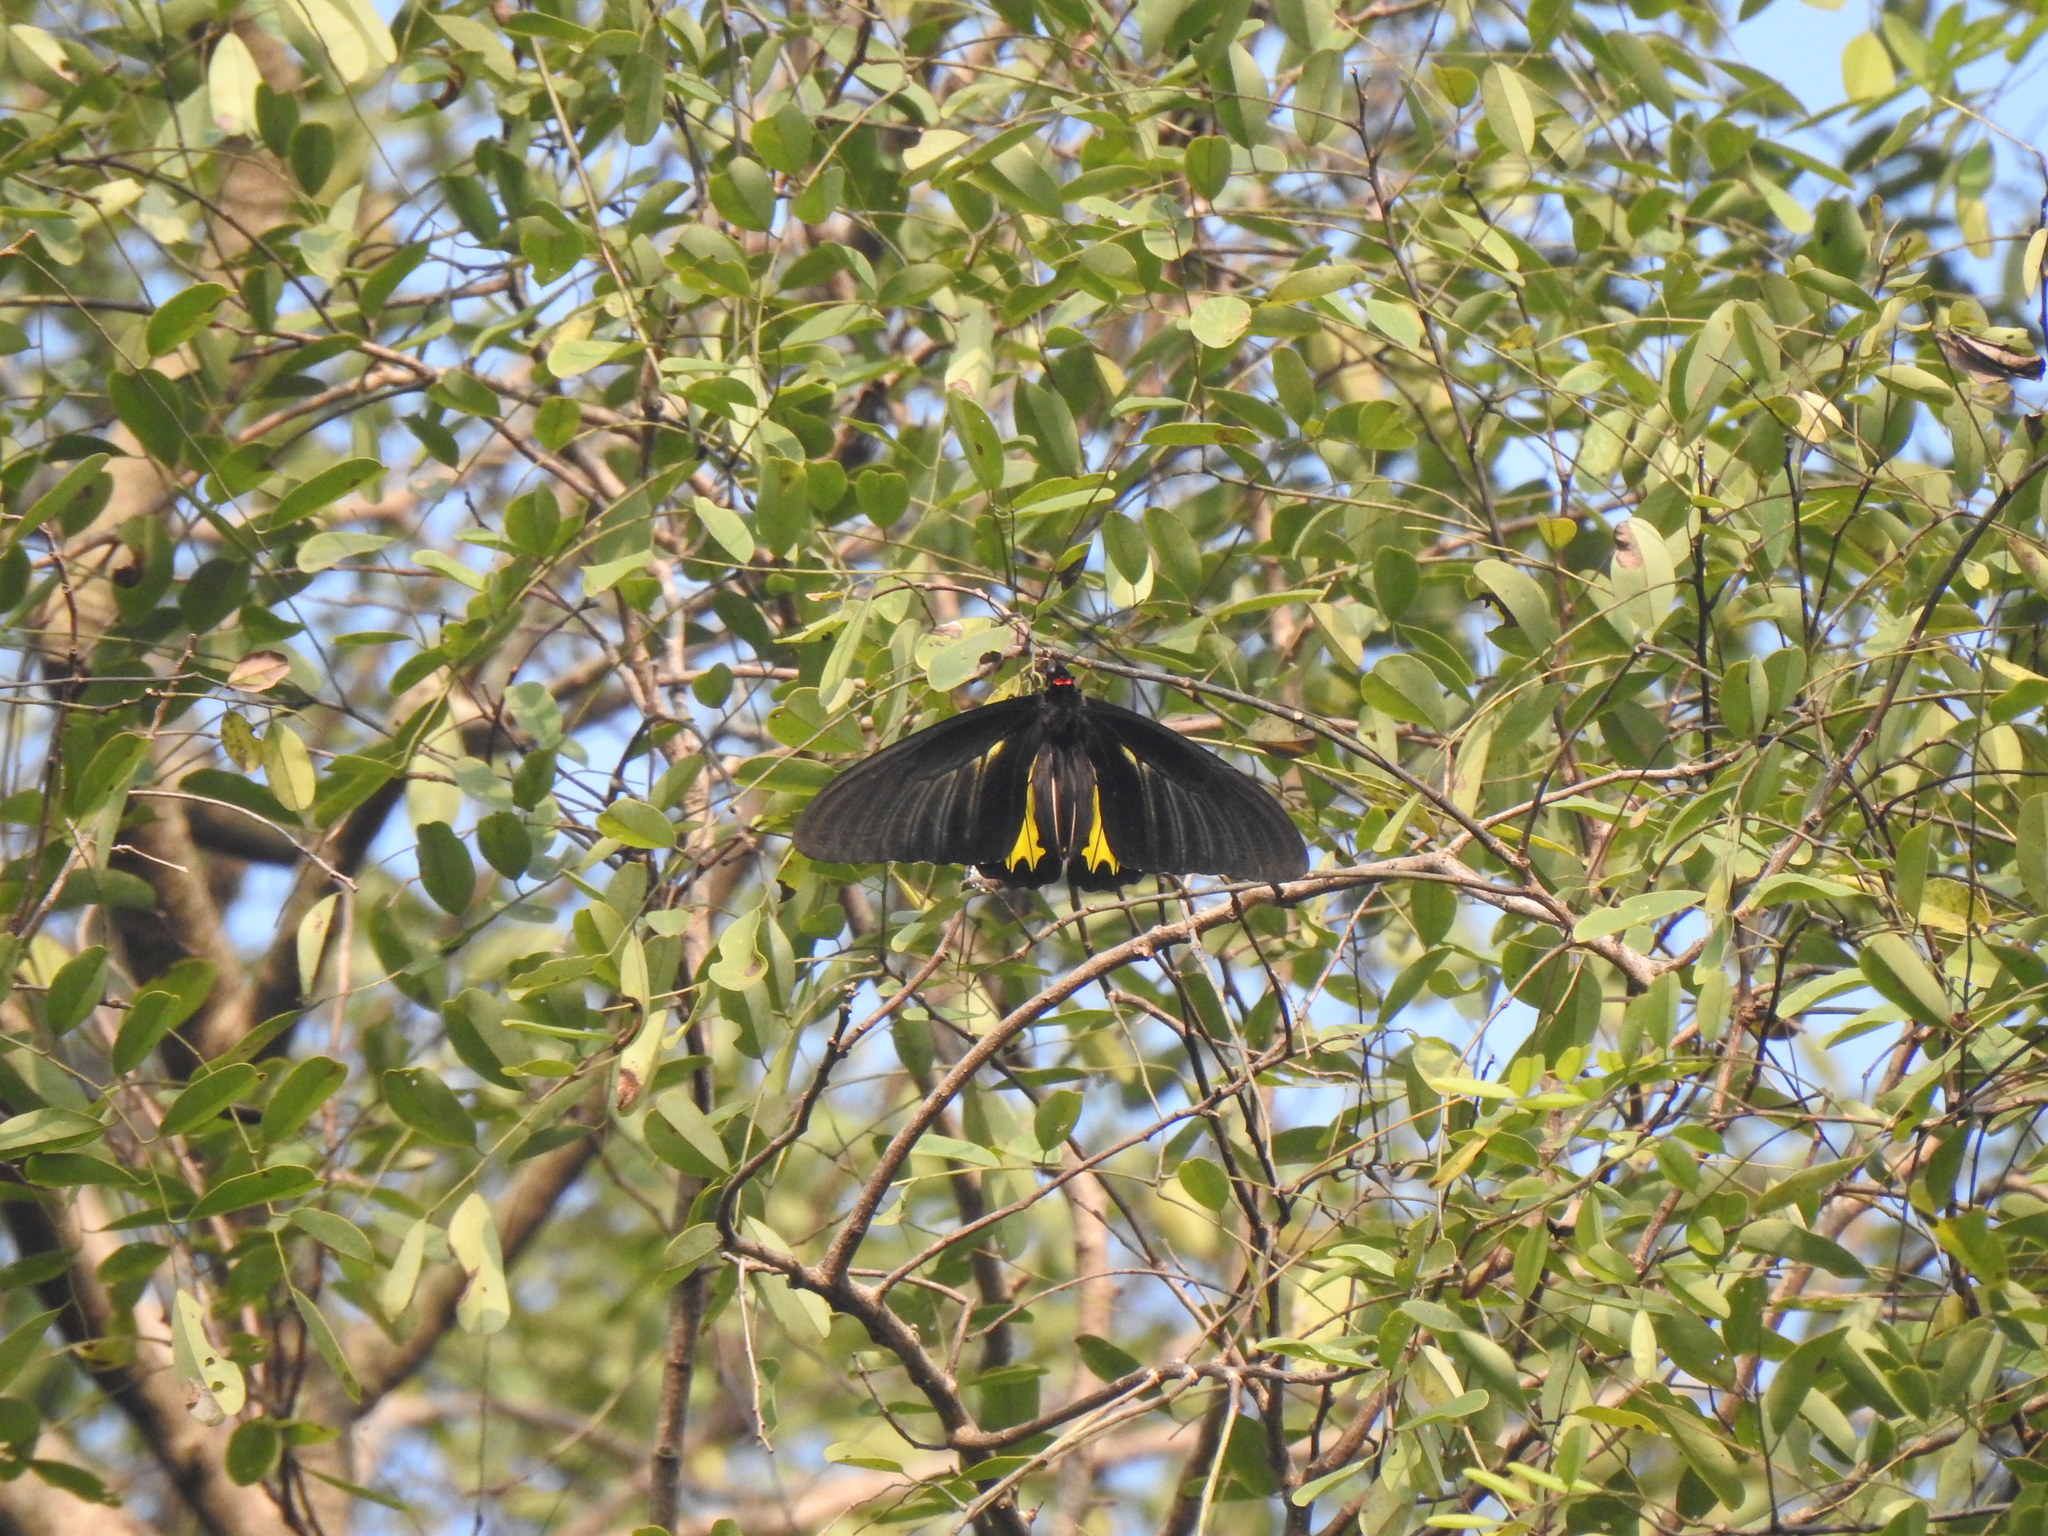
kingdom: Animalia
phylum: Arthropoda
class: Insecta
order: Lepidoptera
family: Papilionidae
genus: Troides
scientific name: Troides minos
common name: Malabar birdwing
